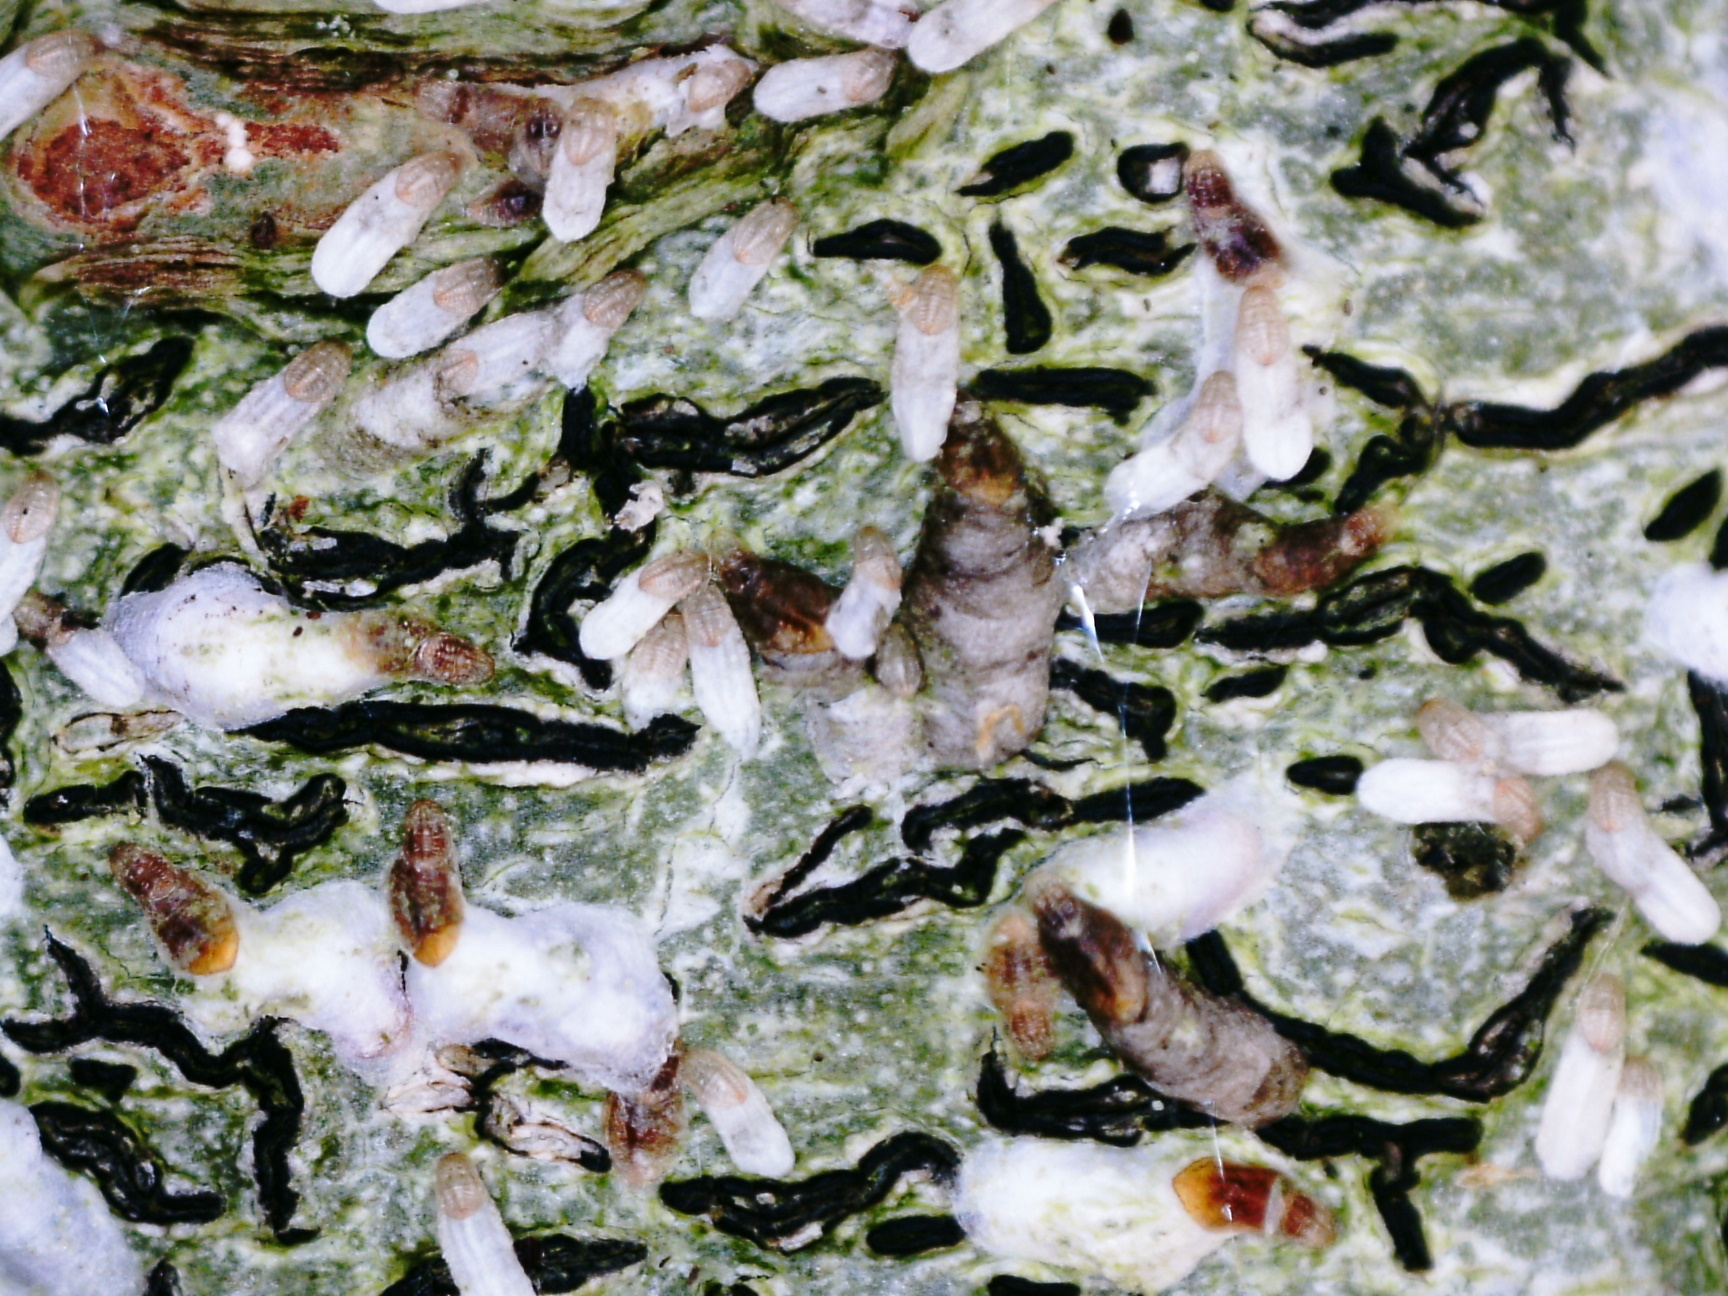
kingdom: Fungi
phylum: Ascomycota
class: Lecanoromycetes
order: Ostropales
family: Graphidaceae
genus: Graphis
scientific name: Graphis scripta
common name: Script lichen
